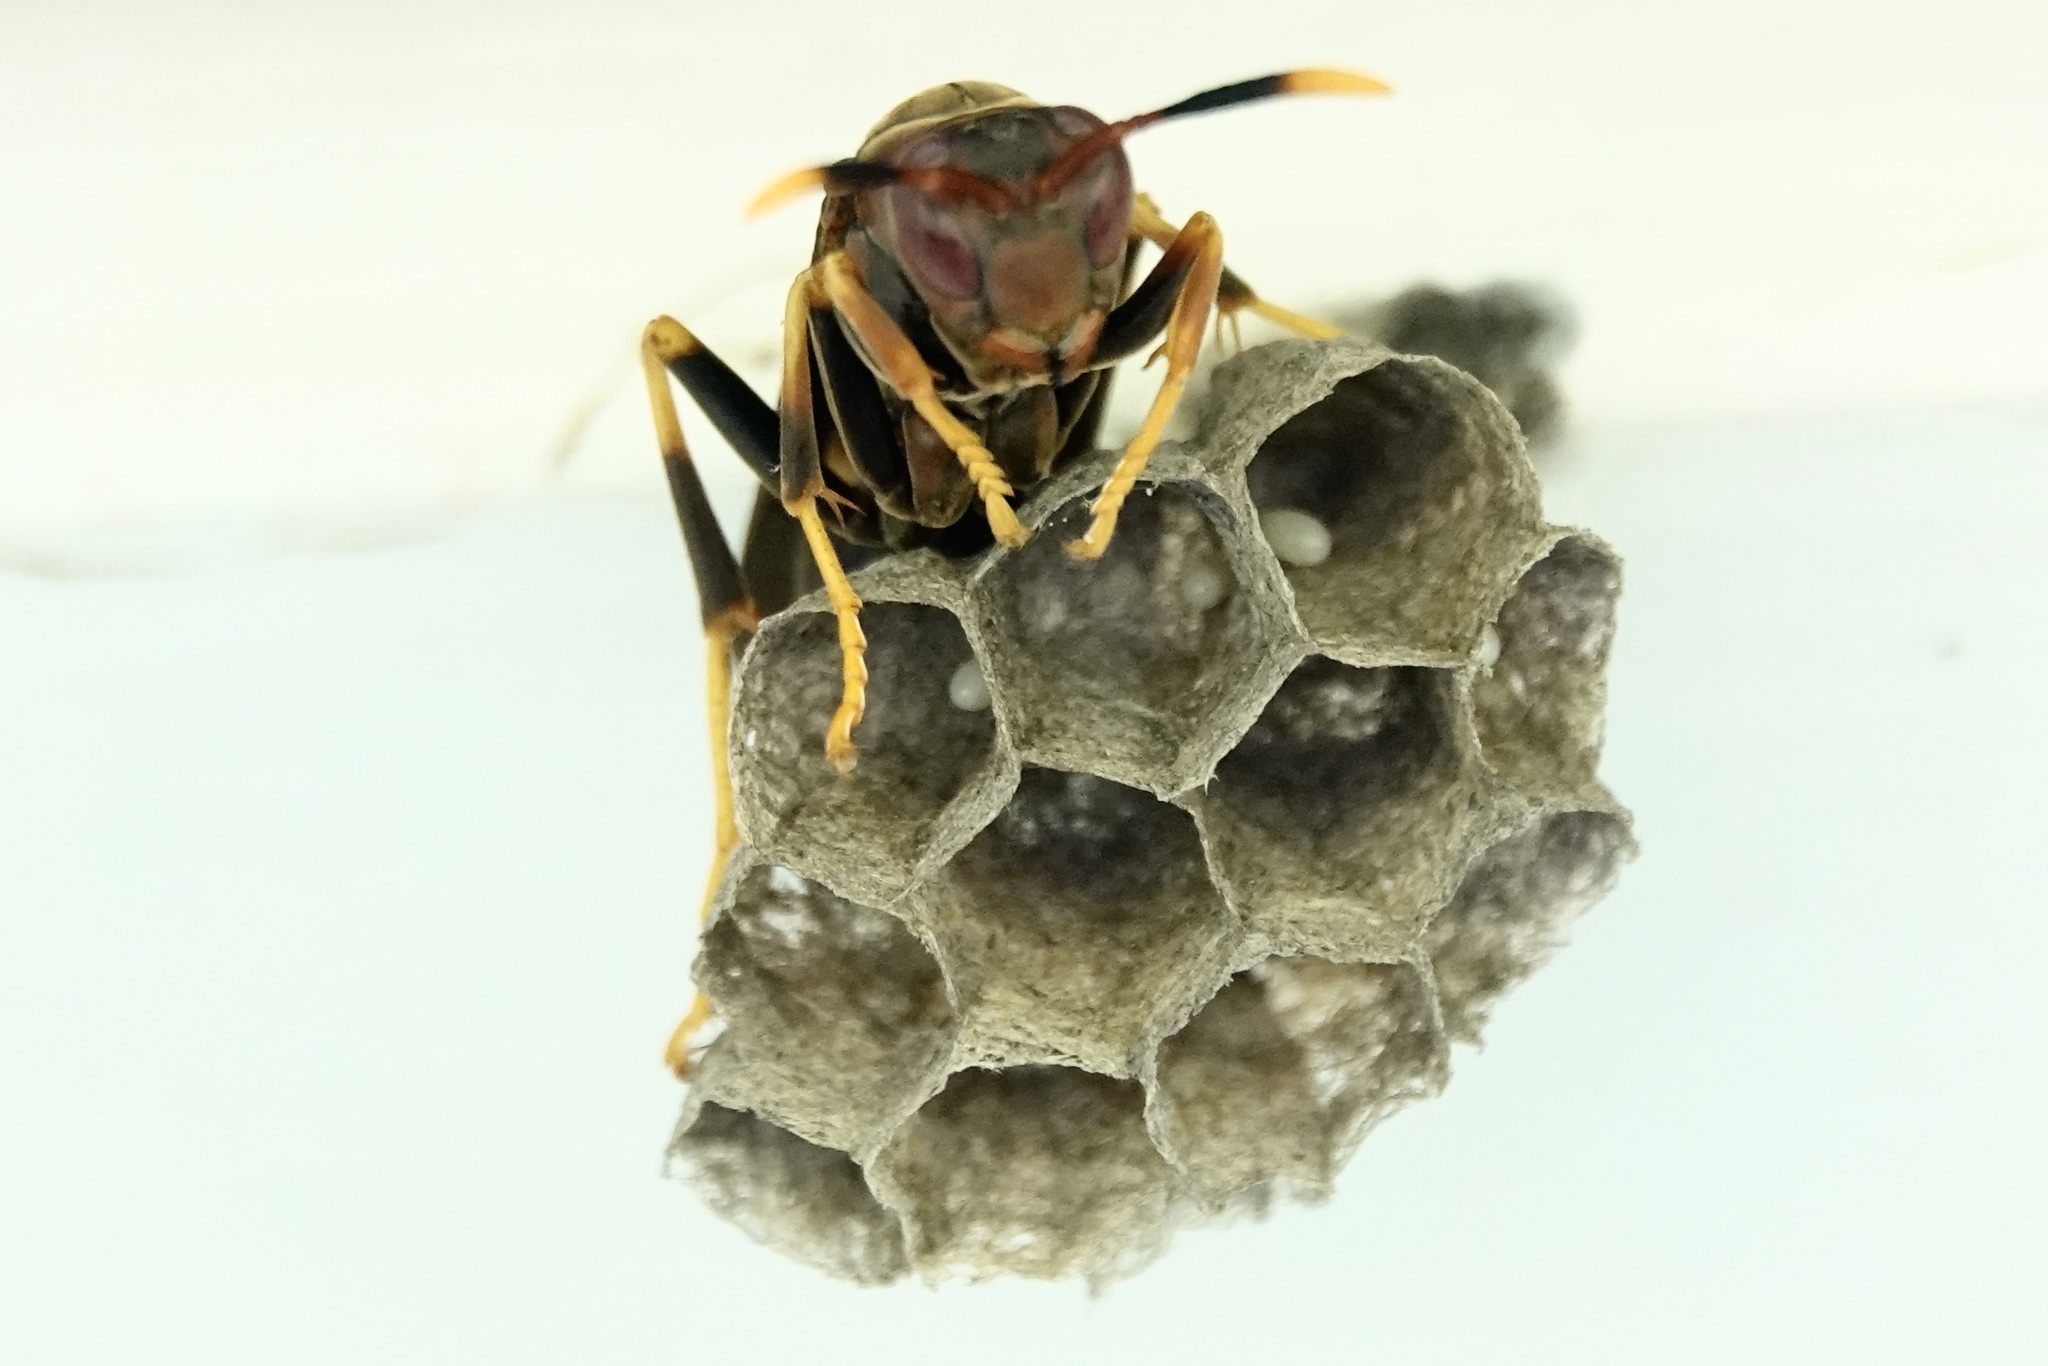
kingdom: Animalia
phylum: Arthropoda
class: Insecta
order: Hymenoptera
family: Eumenidae
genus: Polistes
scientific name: Polistes annularis
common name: Ringed paper wasp
